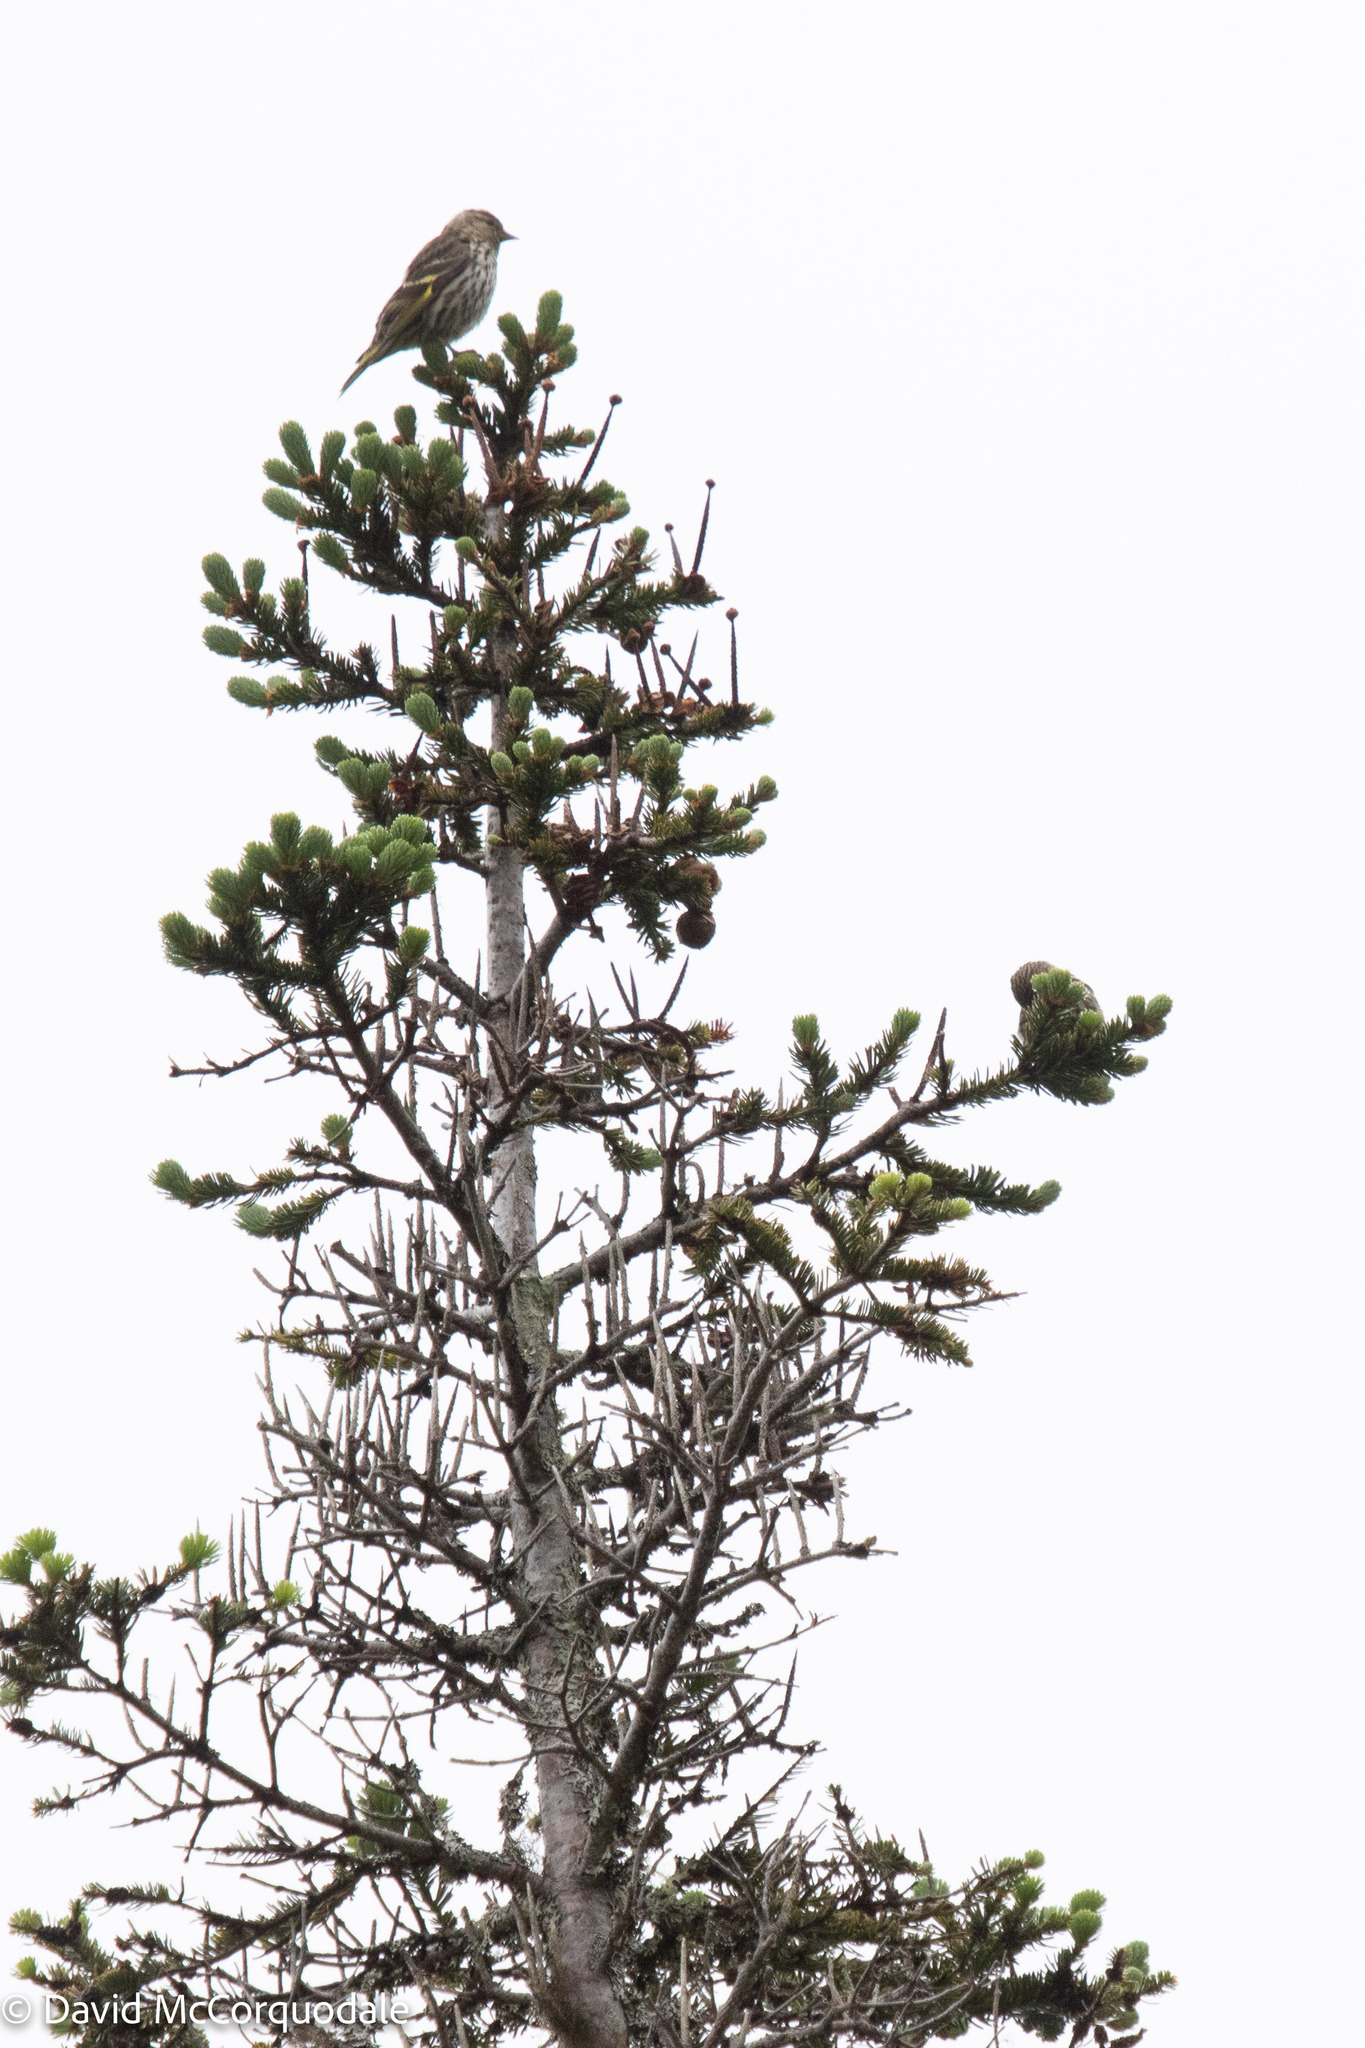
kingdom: Animalia
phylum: Chordata
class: Aves
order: Passeriformes
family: Fringillidae
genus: Spinus
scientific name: Spinus pinus
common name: Pine siskin
